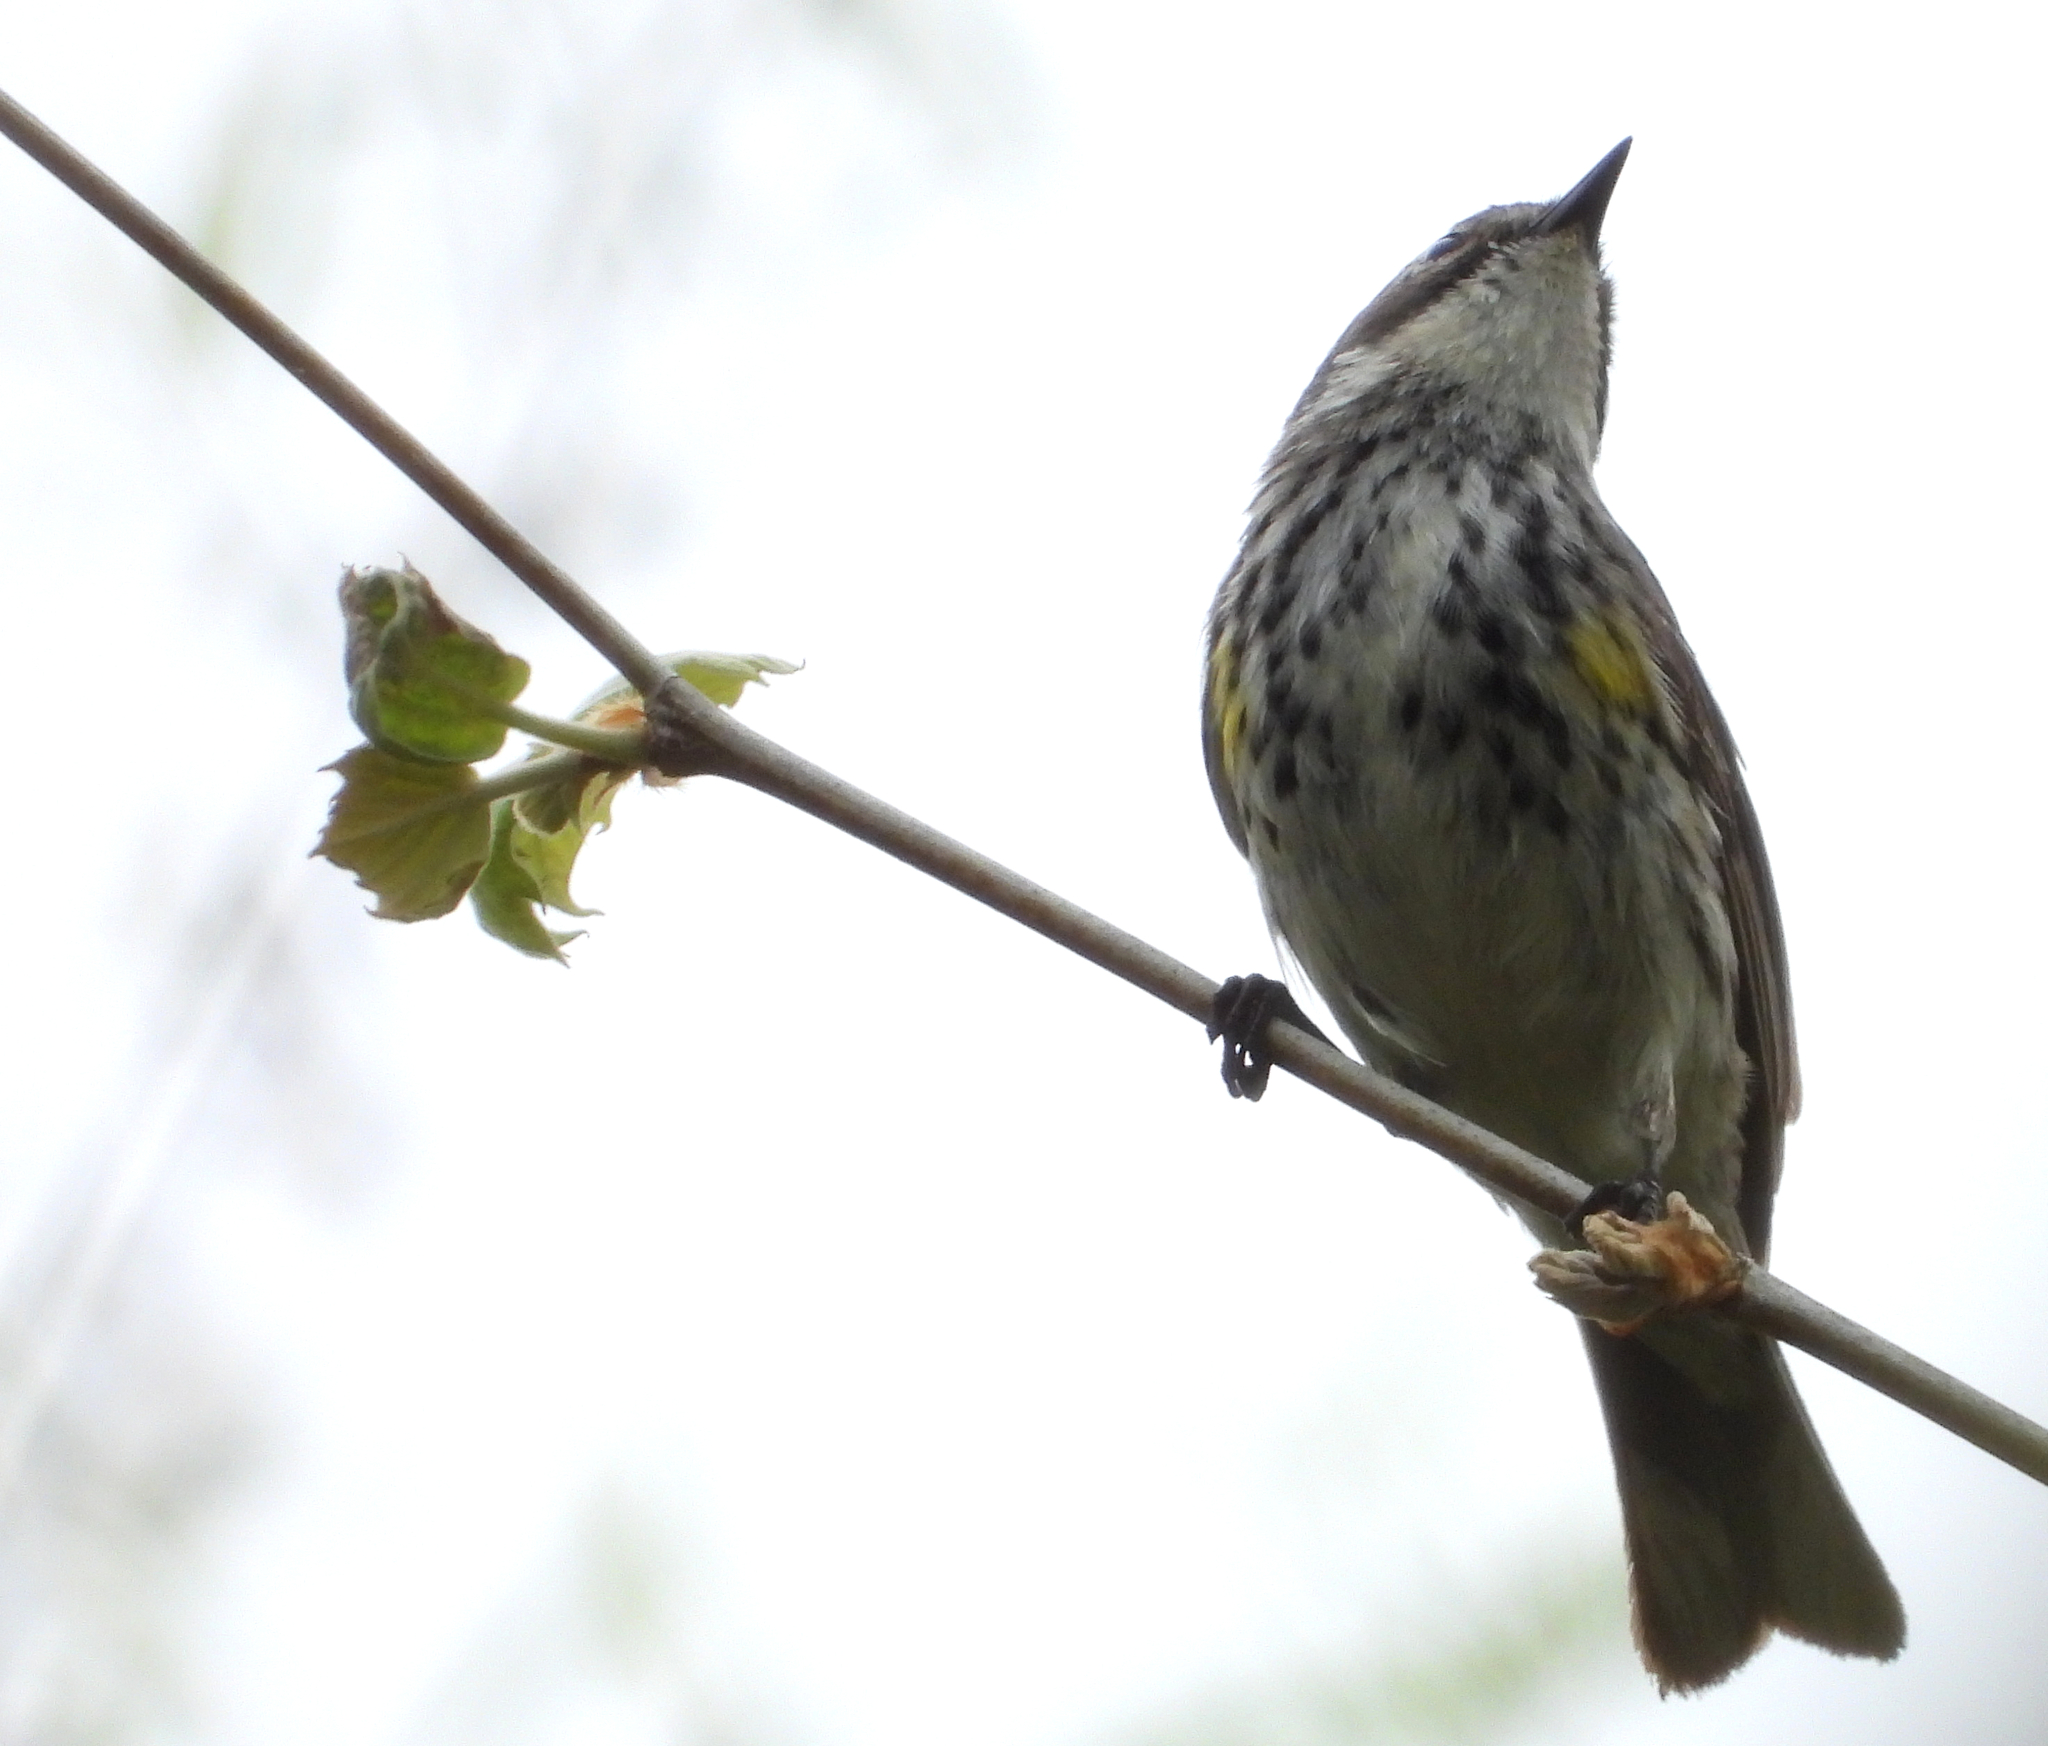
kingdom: Animalia
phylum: Chordata
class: Aves
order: Passeriformes
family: Parulidae
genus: Setophaga
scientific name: Setophaga coronata
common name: Myrtle warbler
